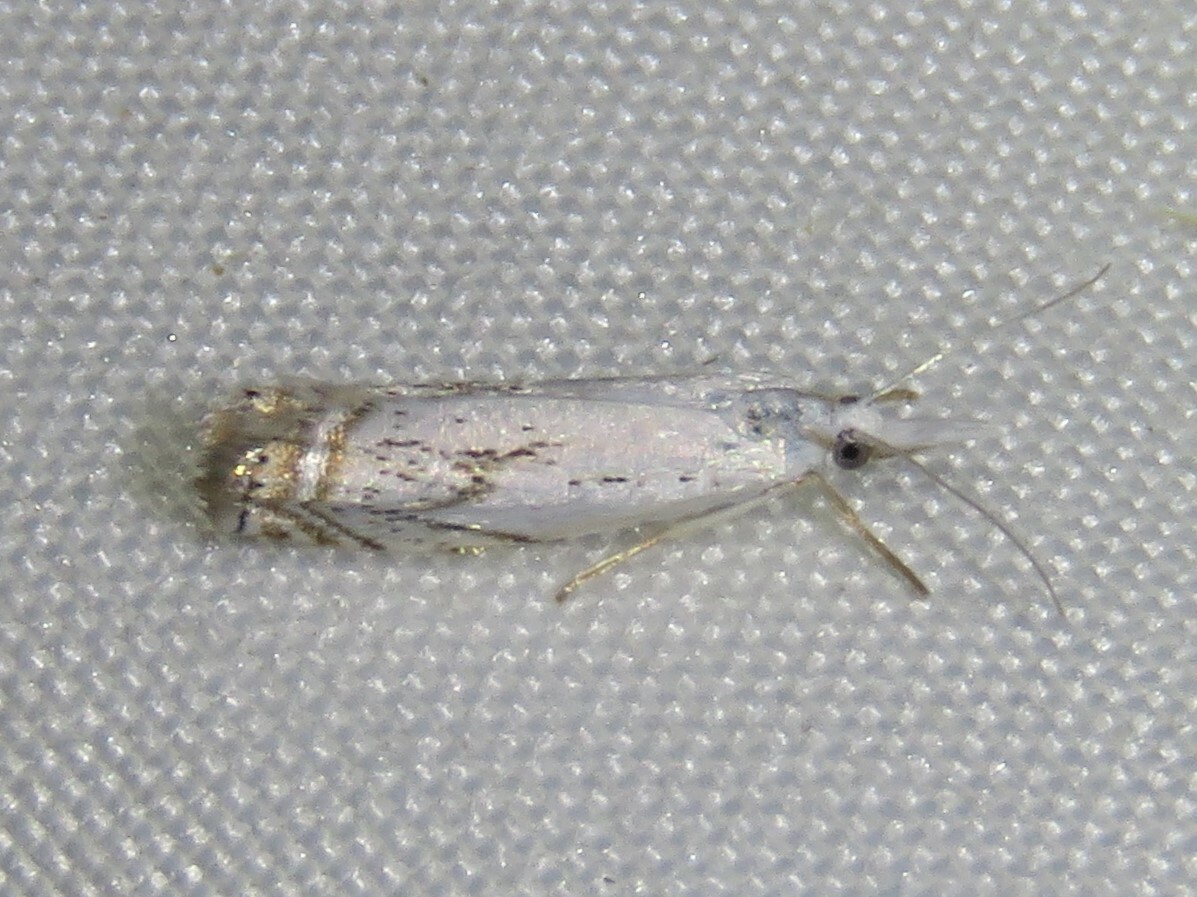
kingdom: Animalia
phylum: Arthropoda
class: Insecta
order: Lepidoptera
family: Crambidae
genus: Crambus
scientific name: Crambus albellus
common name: Small white grass-veneer
